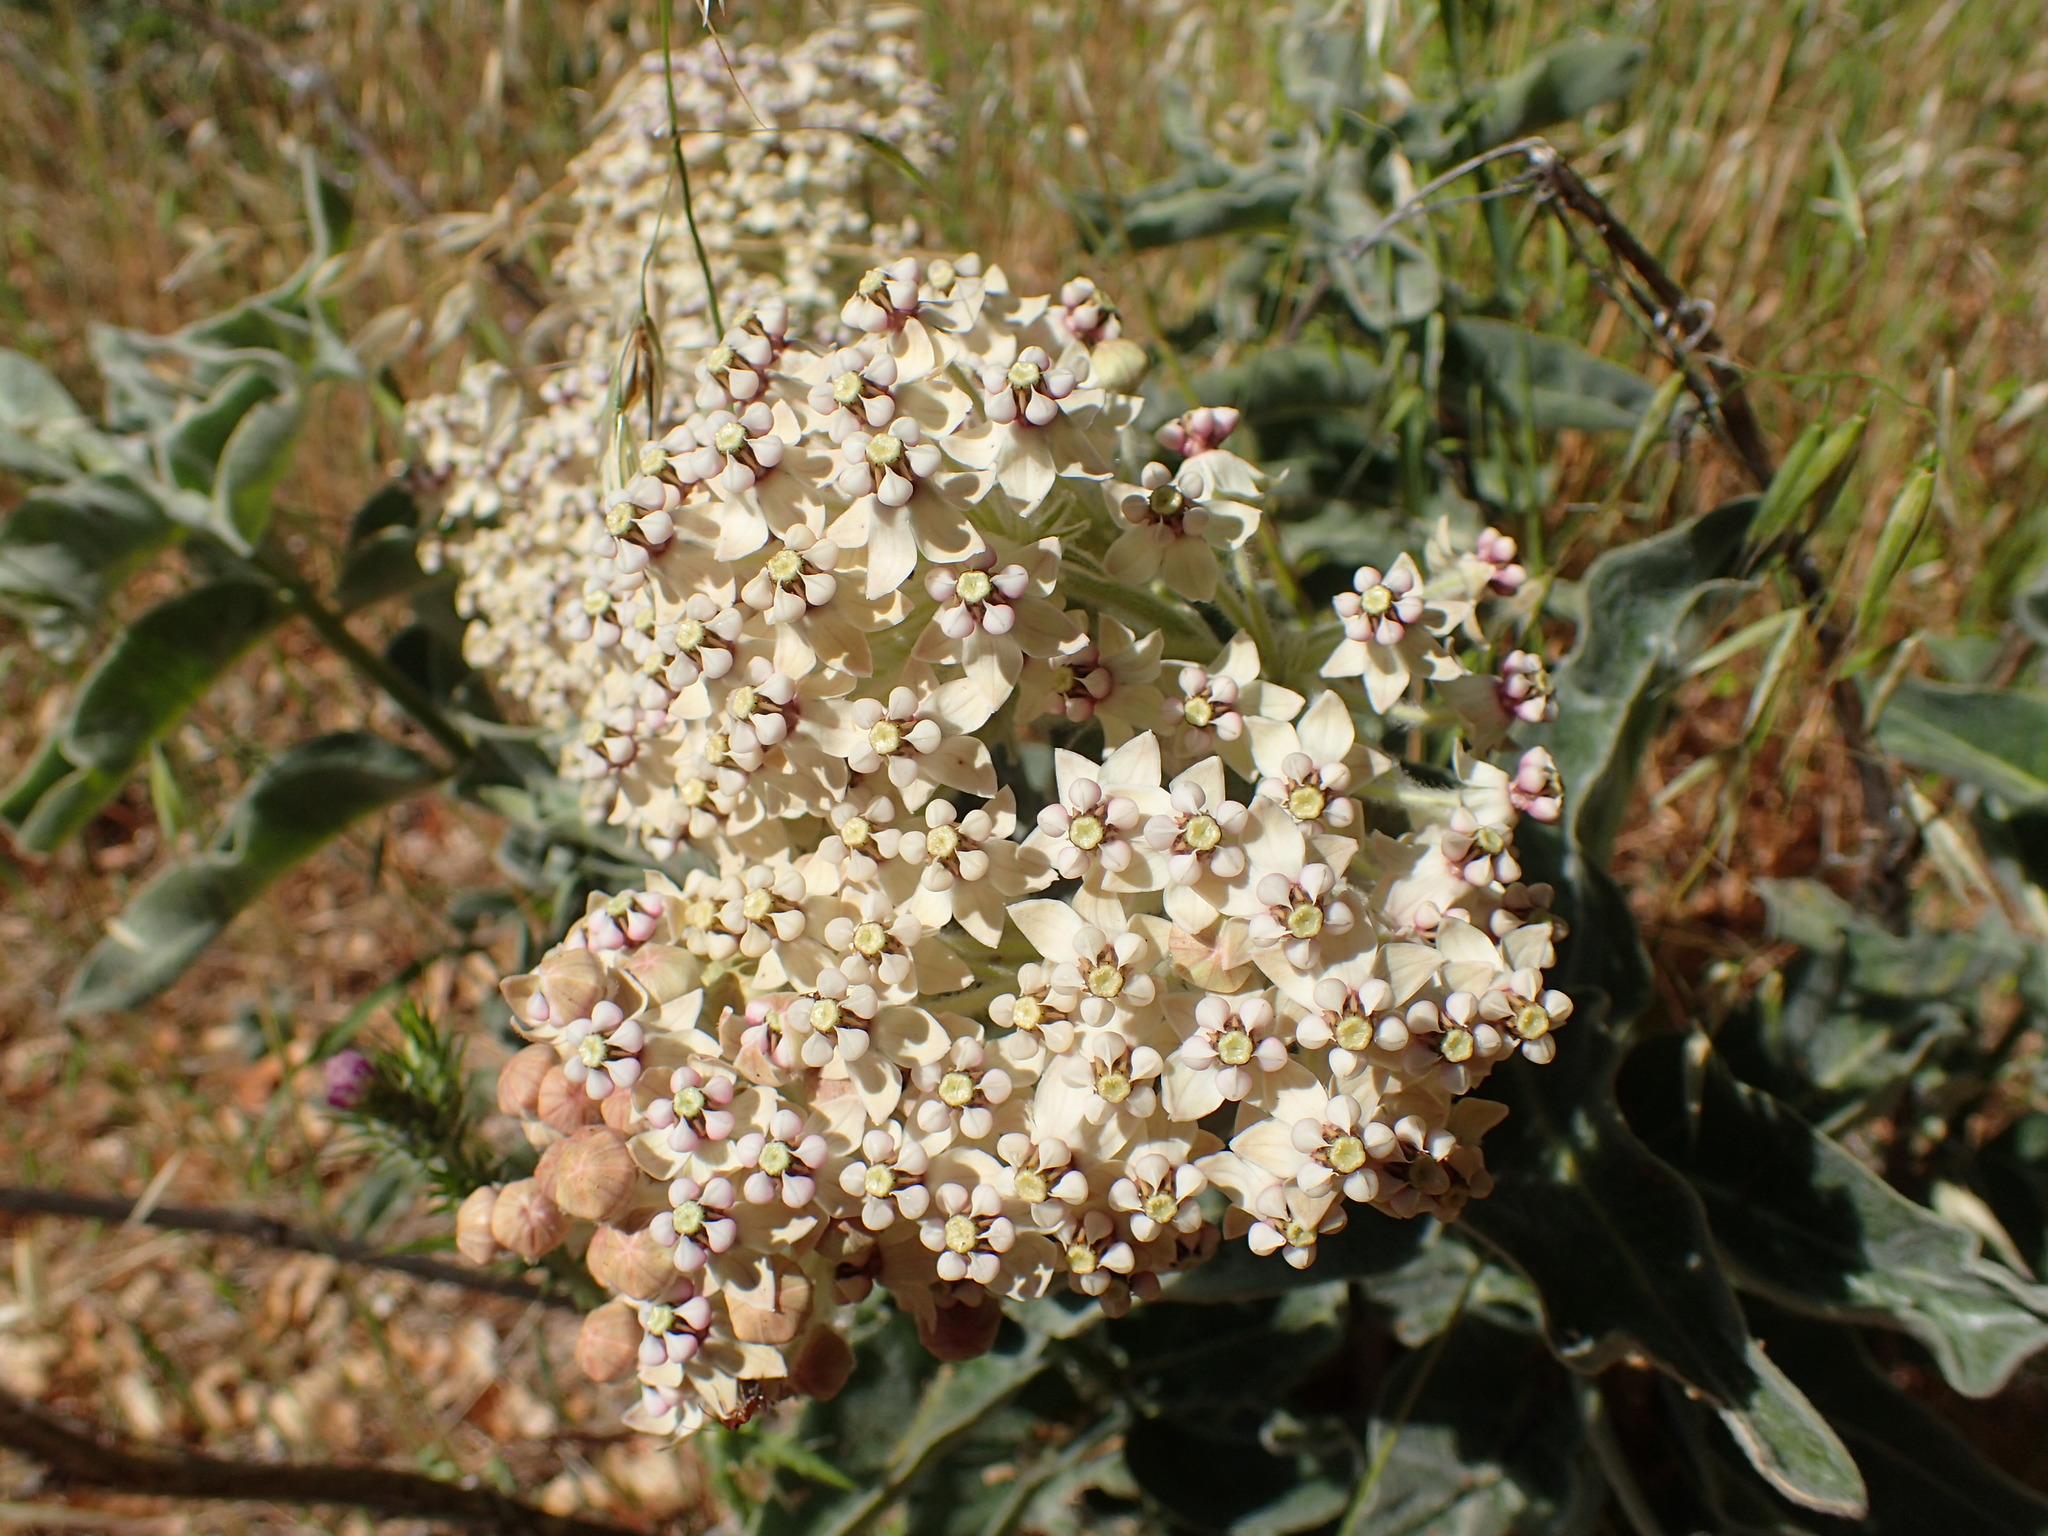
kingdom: Plantae
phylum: Tracheophyta
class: Magnoliopsida
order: Gentianales
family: Apocynaceae
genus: Asclepias
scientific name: Asclepias eriocarpa
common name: Indian milkweed
